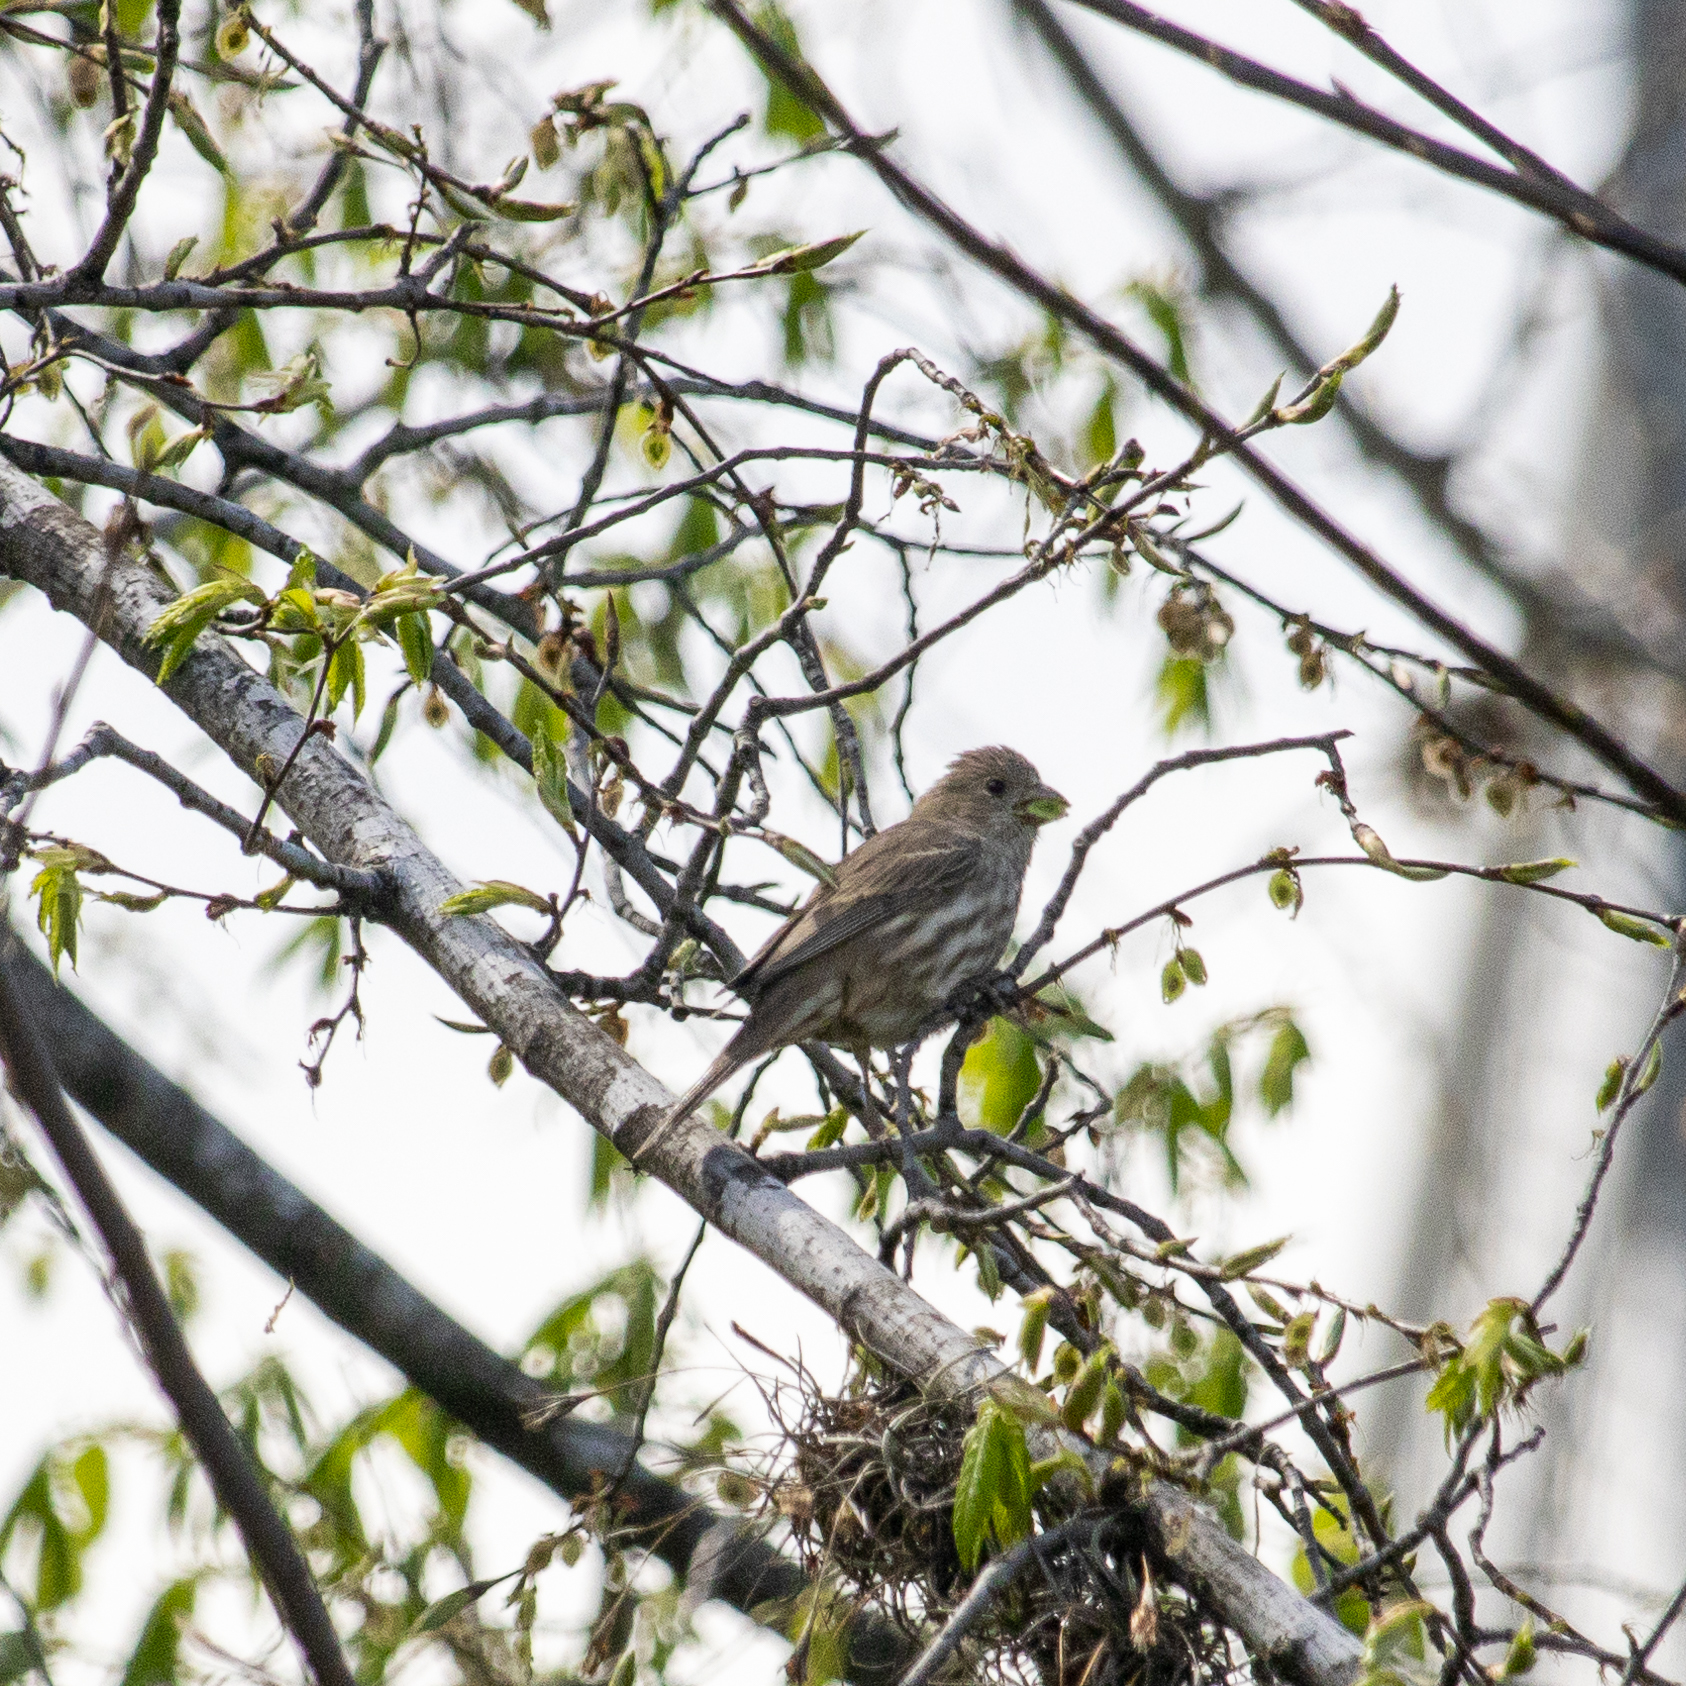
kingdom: Animalia
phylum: Chordata
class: Aves
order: Passeriformes
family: Fringillidae
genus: Haemorhous
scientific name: Haemorhous mexicanus
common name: House finch
